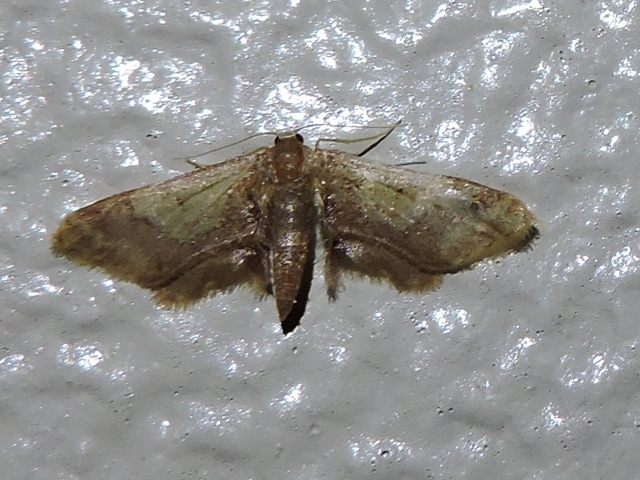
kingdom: Animalia
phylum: Arthropoda
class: Insecta
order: Lepidoptera
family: Geometridae
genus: Idaea
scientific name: Idaea furciferata
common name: Notch-winged wave
